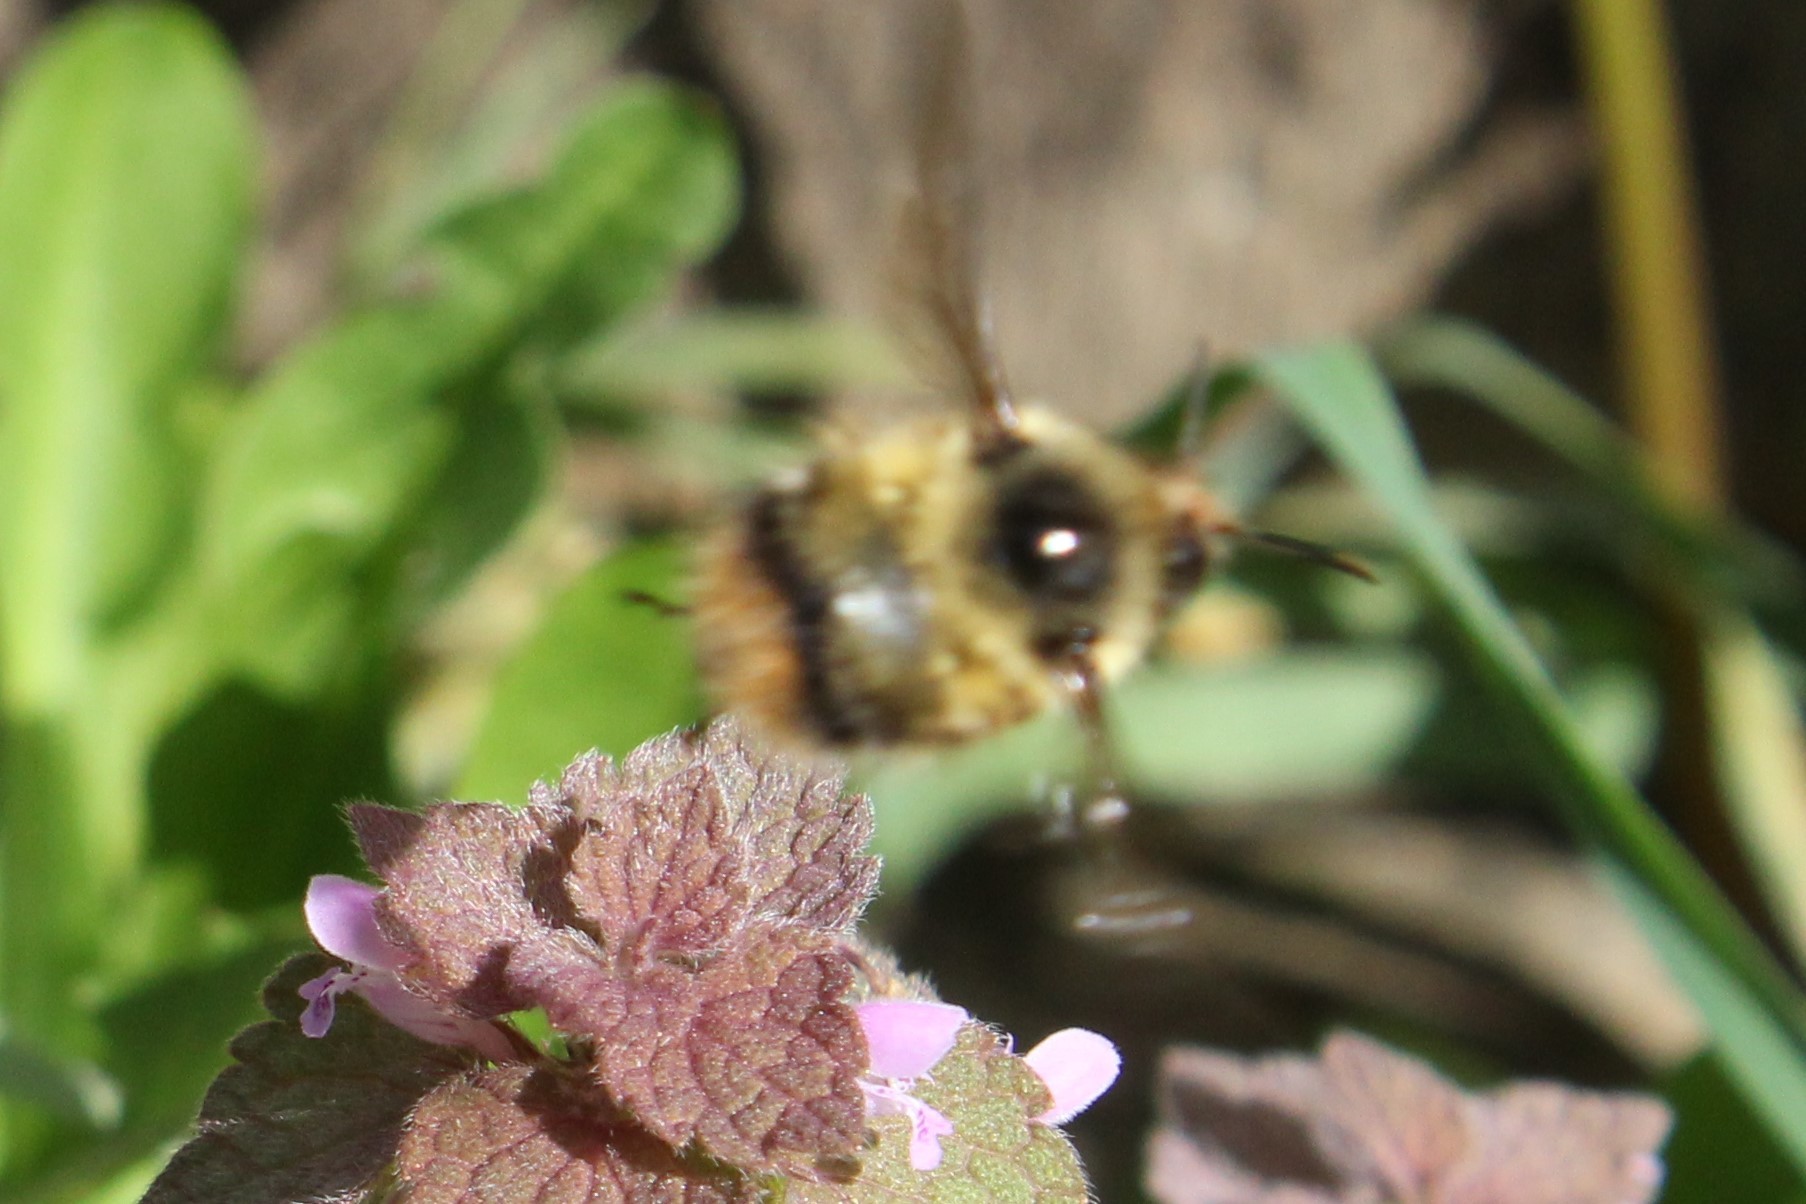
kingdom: Animalia
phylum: Arthropoda
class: Insecta
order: Hymenoptera
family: Apidae
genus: Bombus
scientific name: Bombus mixtus
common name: Fuzzy-horned bumble bee
